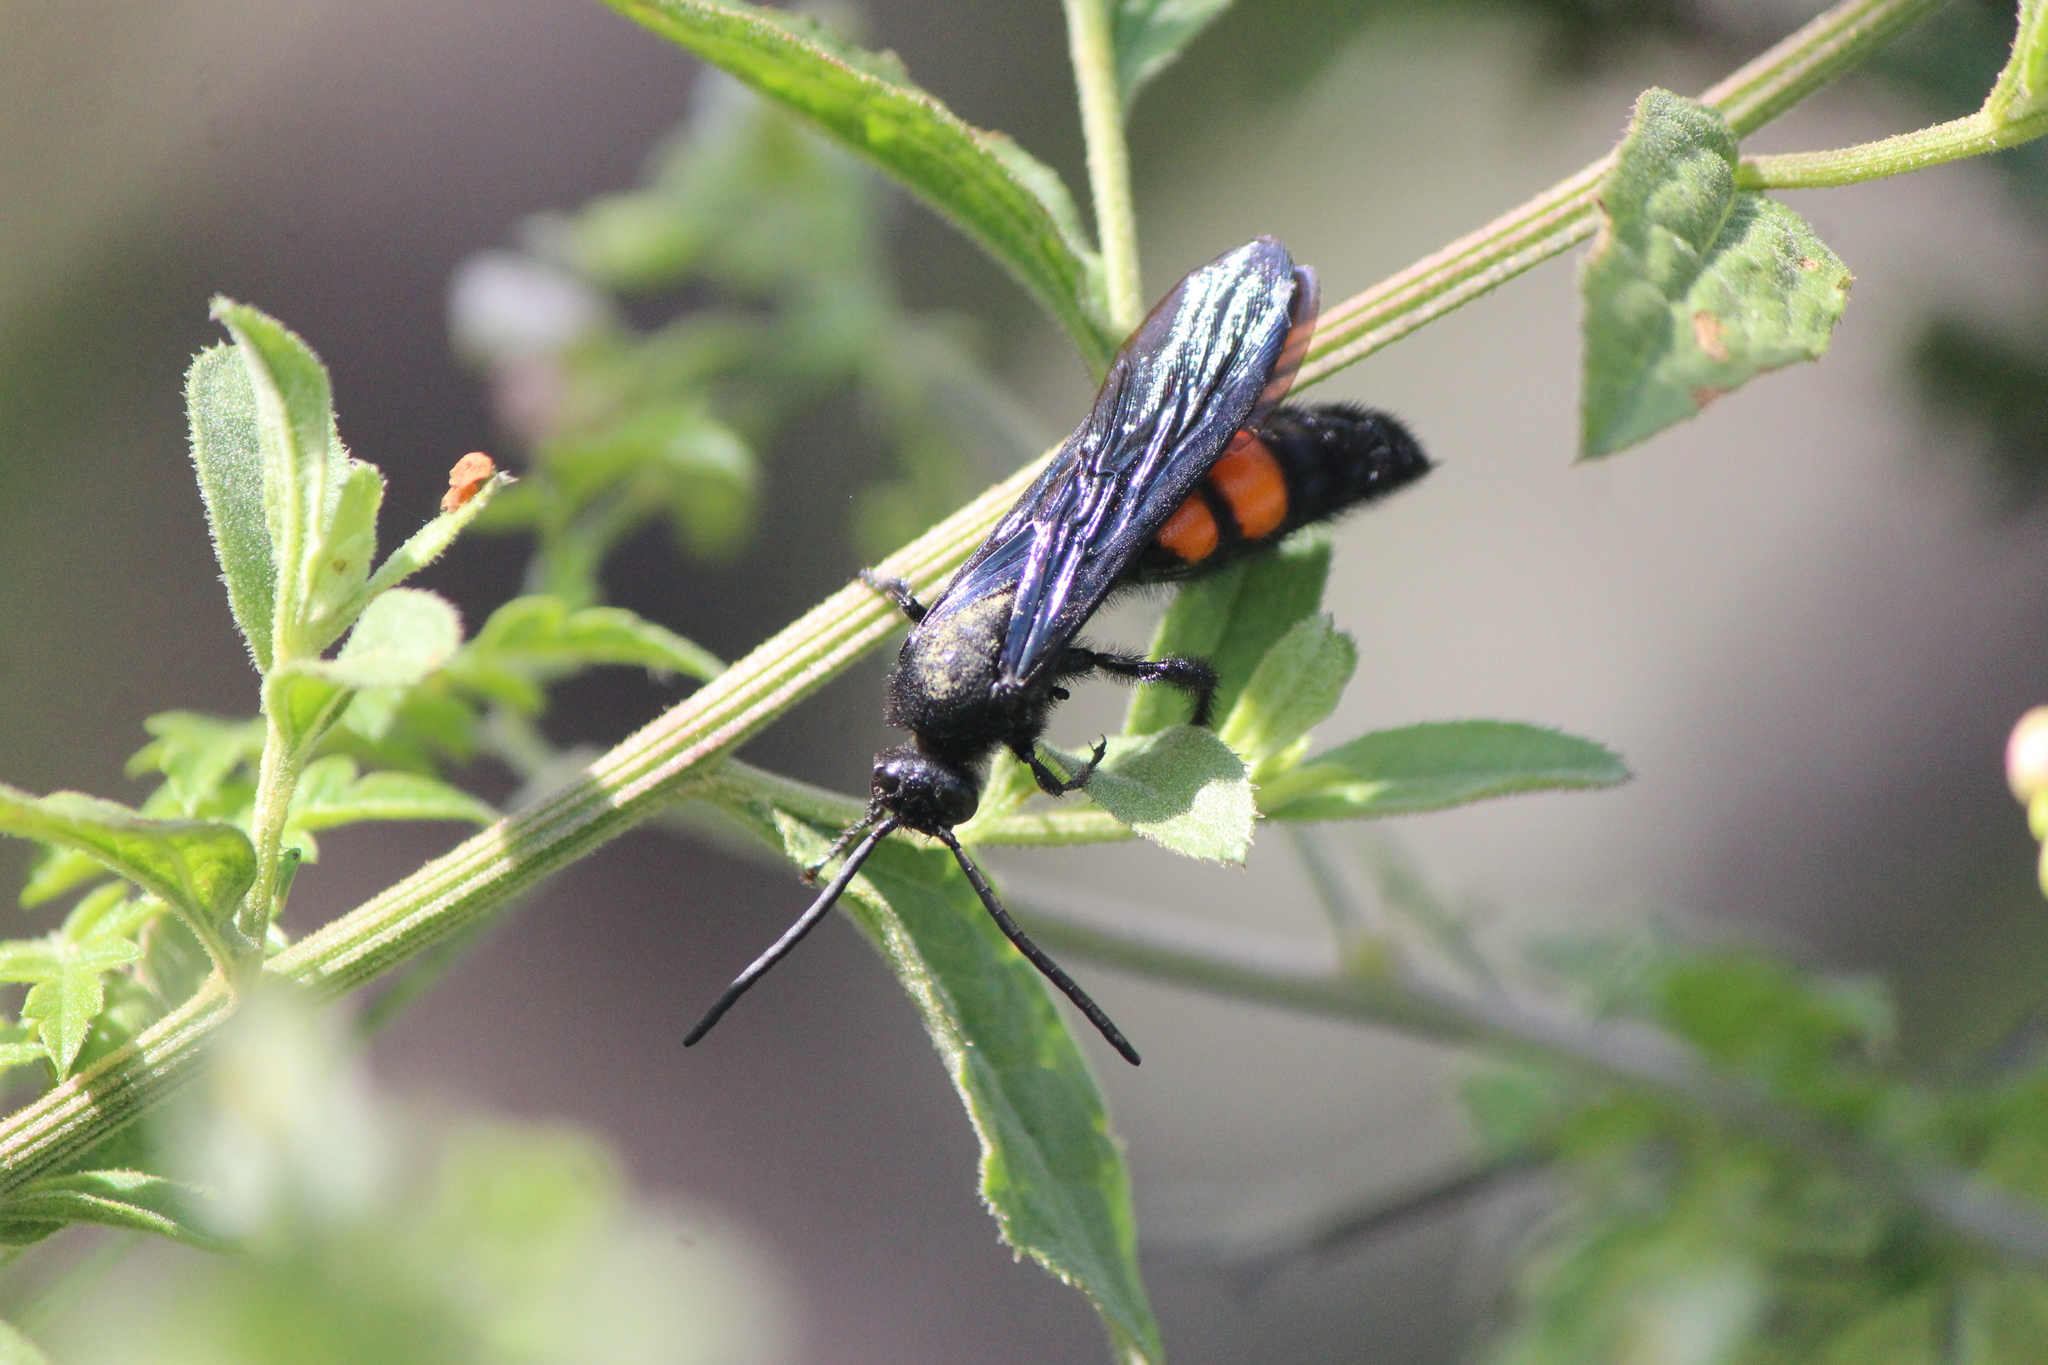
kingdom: Animalia
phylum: Arthropoda
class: Insecta
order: Hymenoptera
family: Scoliidae
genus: Pygodasis
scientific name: Pygodasis ephippium
